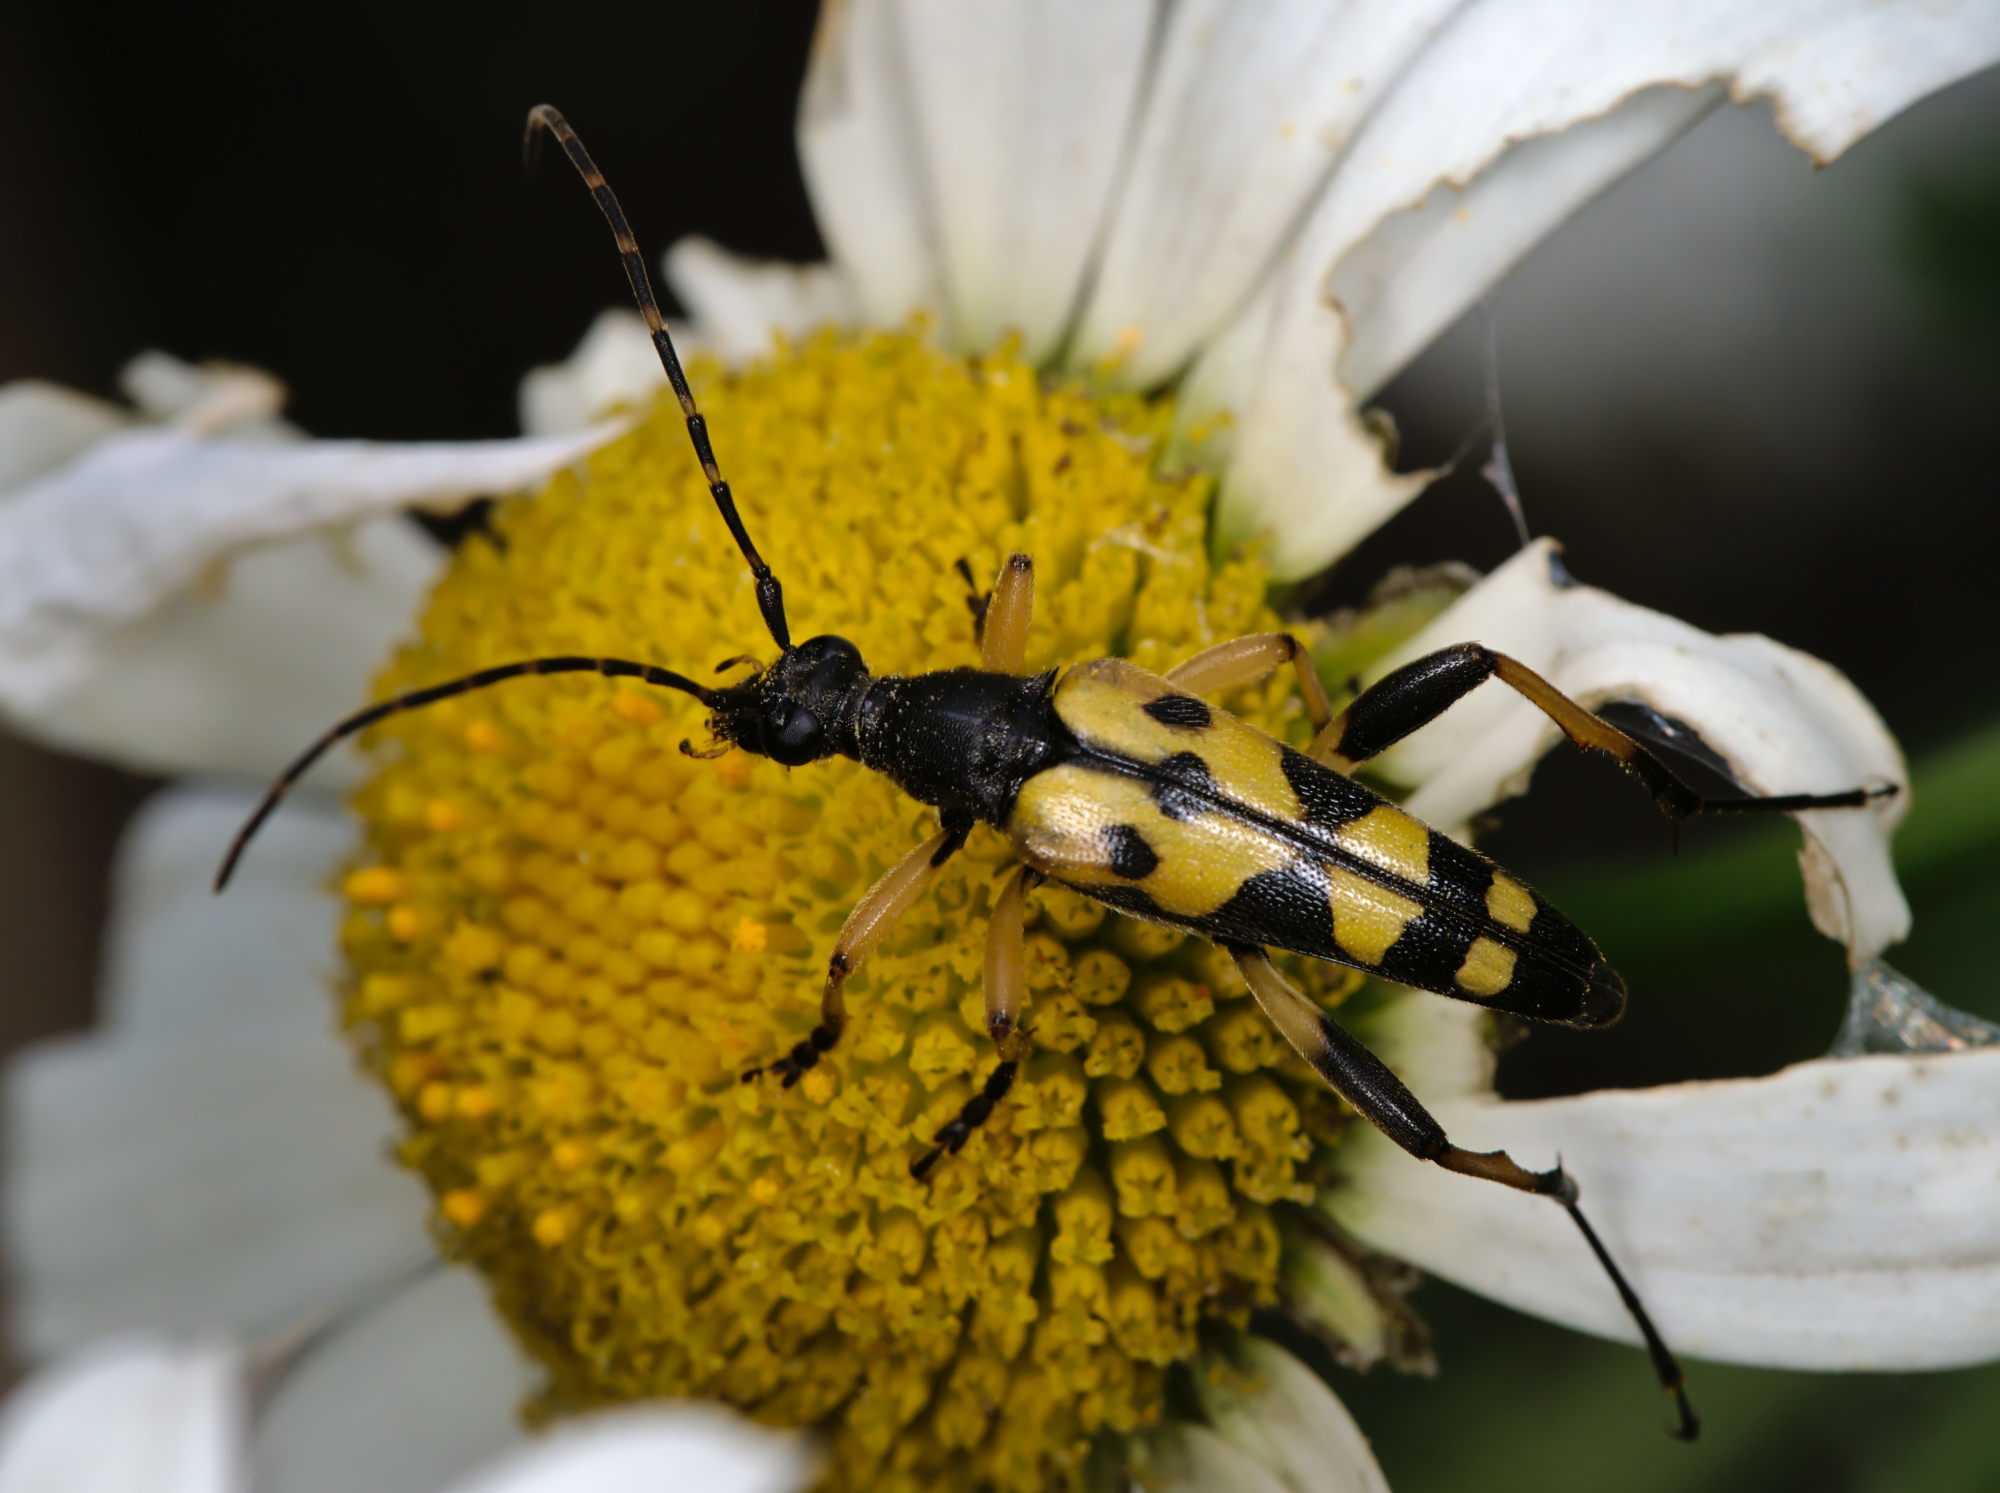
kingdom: Animalia
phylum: Arthropoda
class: Insecta
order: Coleoptera
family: Cerambycidae
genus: Rutpela
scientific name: Rutpela maculata
